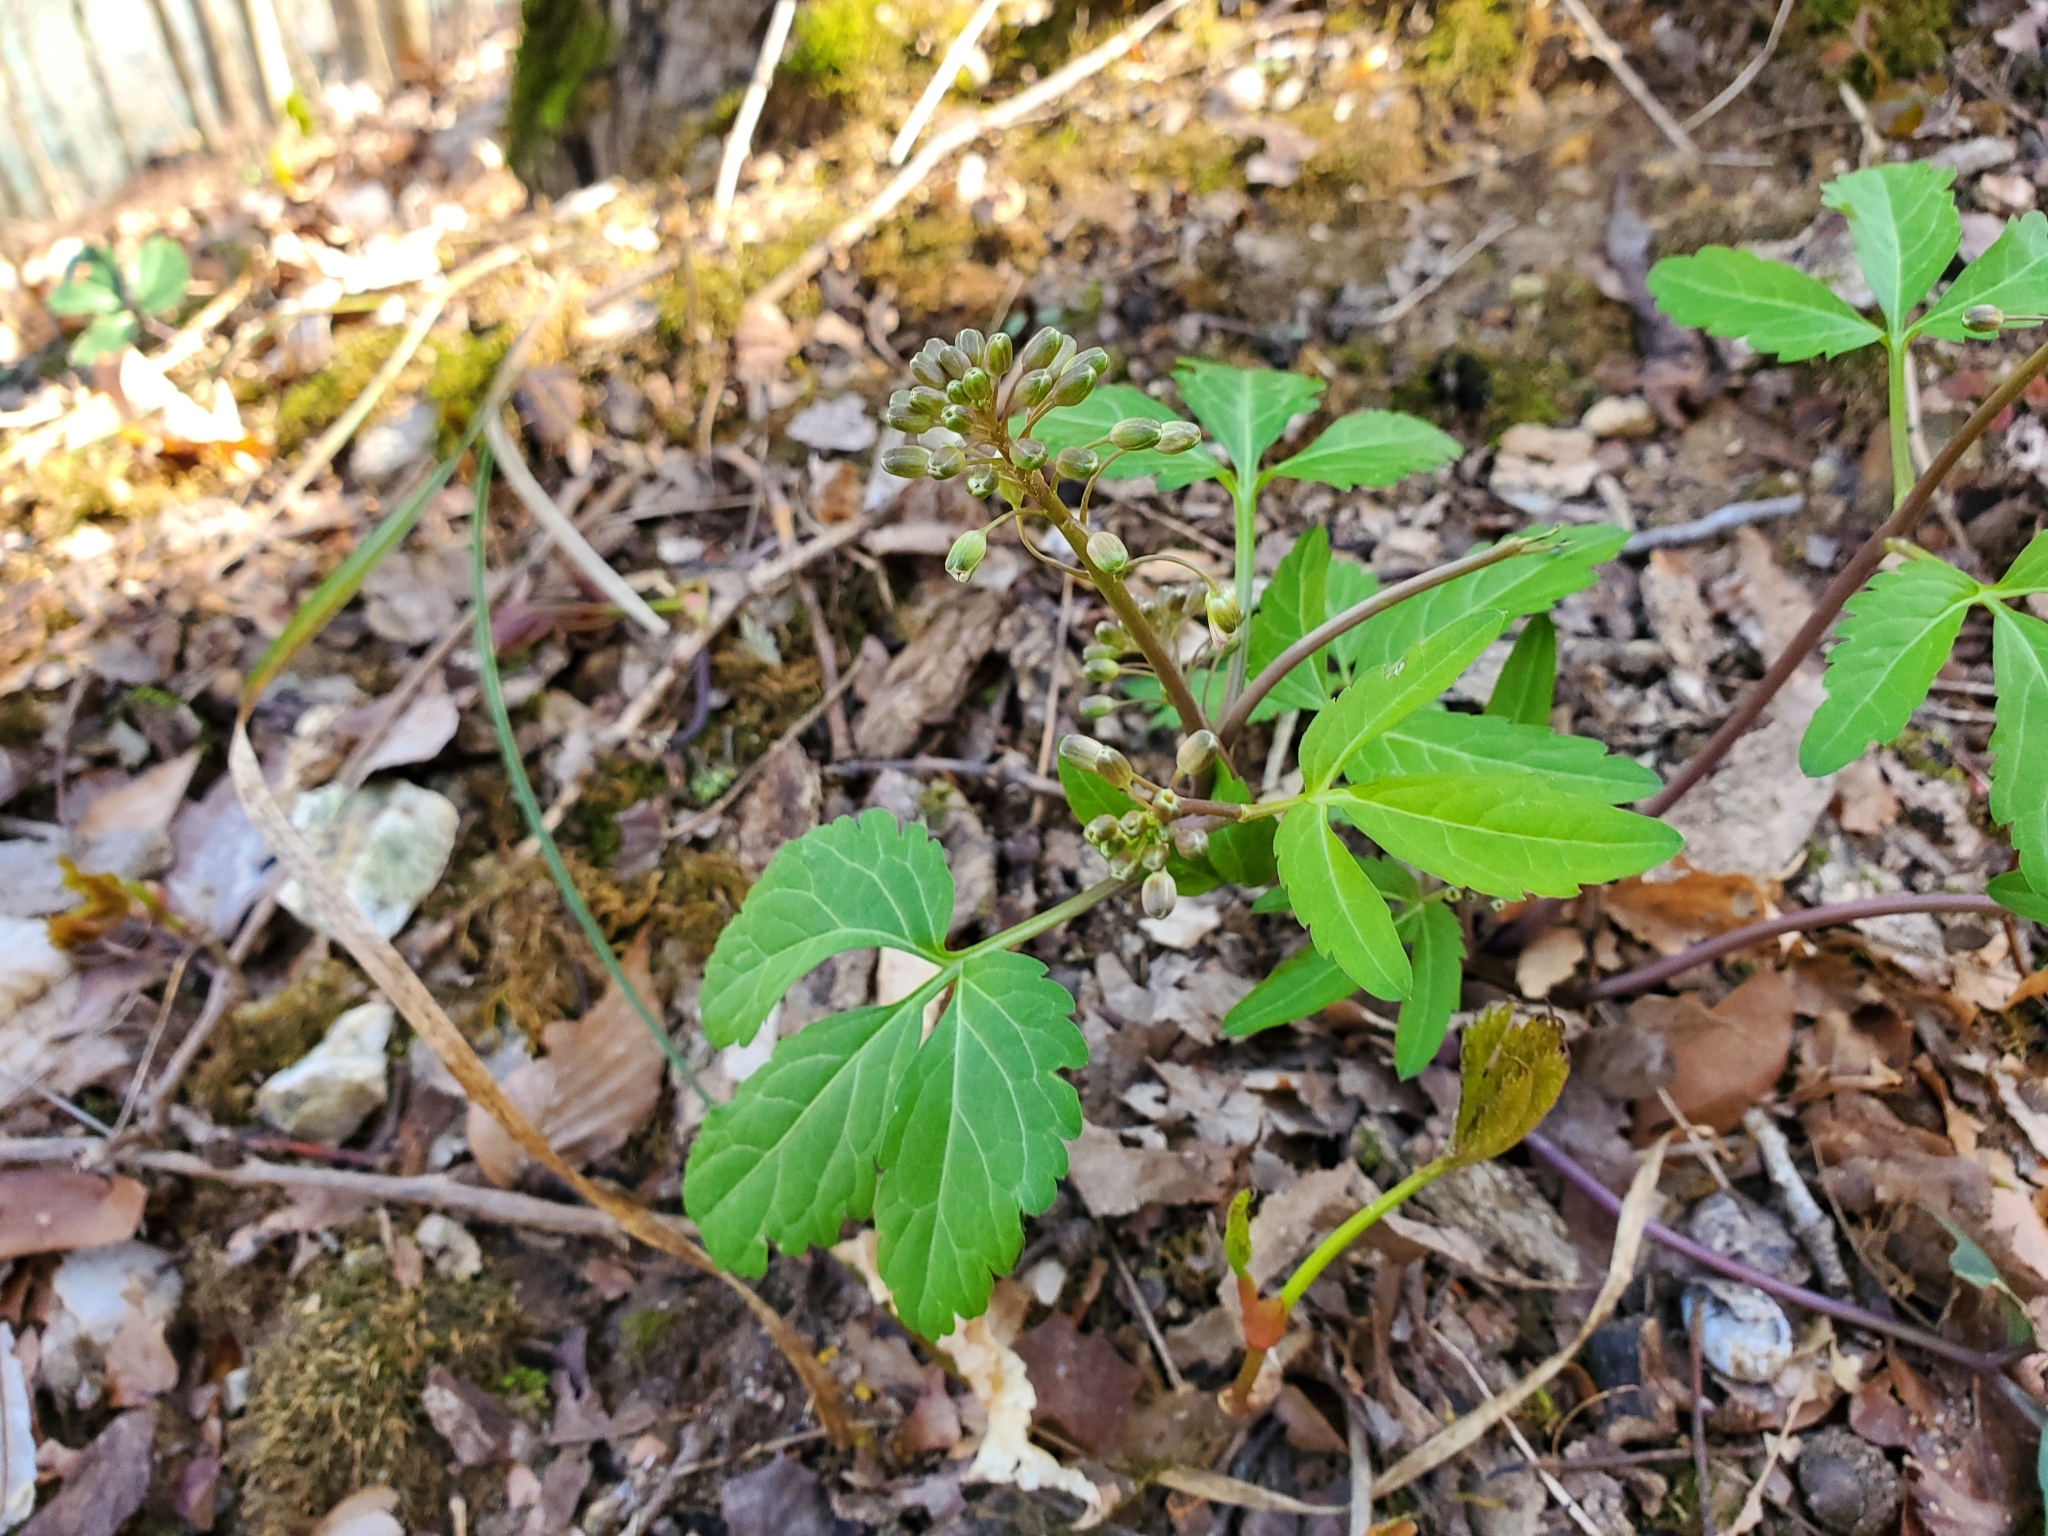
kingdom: Plantae
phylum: Tracheophyta
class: Magnoliopsida
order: Brassicales
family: Brassicaceae
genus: Cardamine
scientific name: Cardamine diphylla
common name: Broad-leaved toothwort
